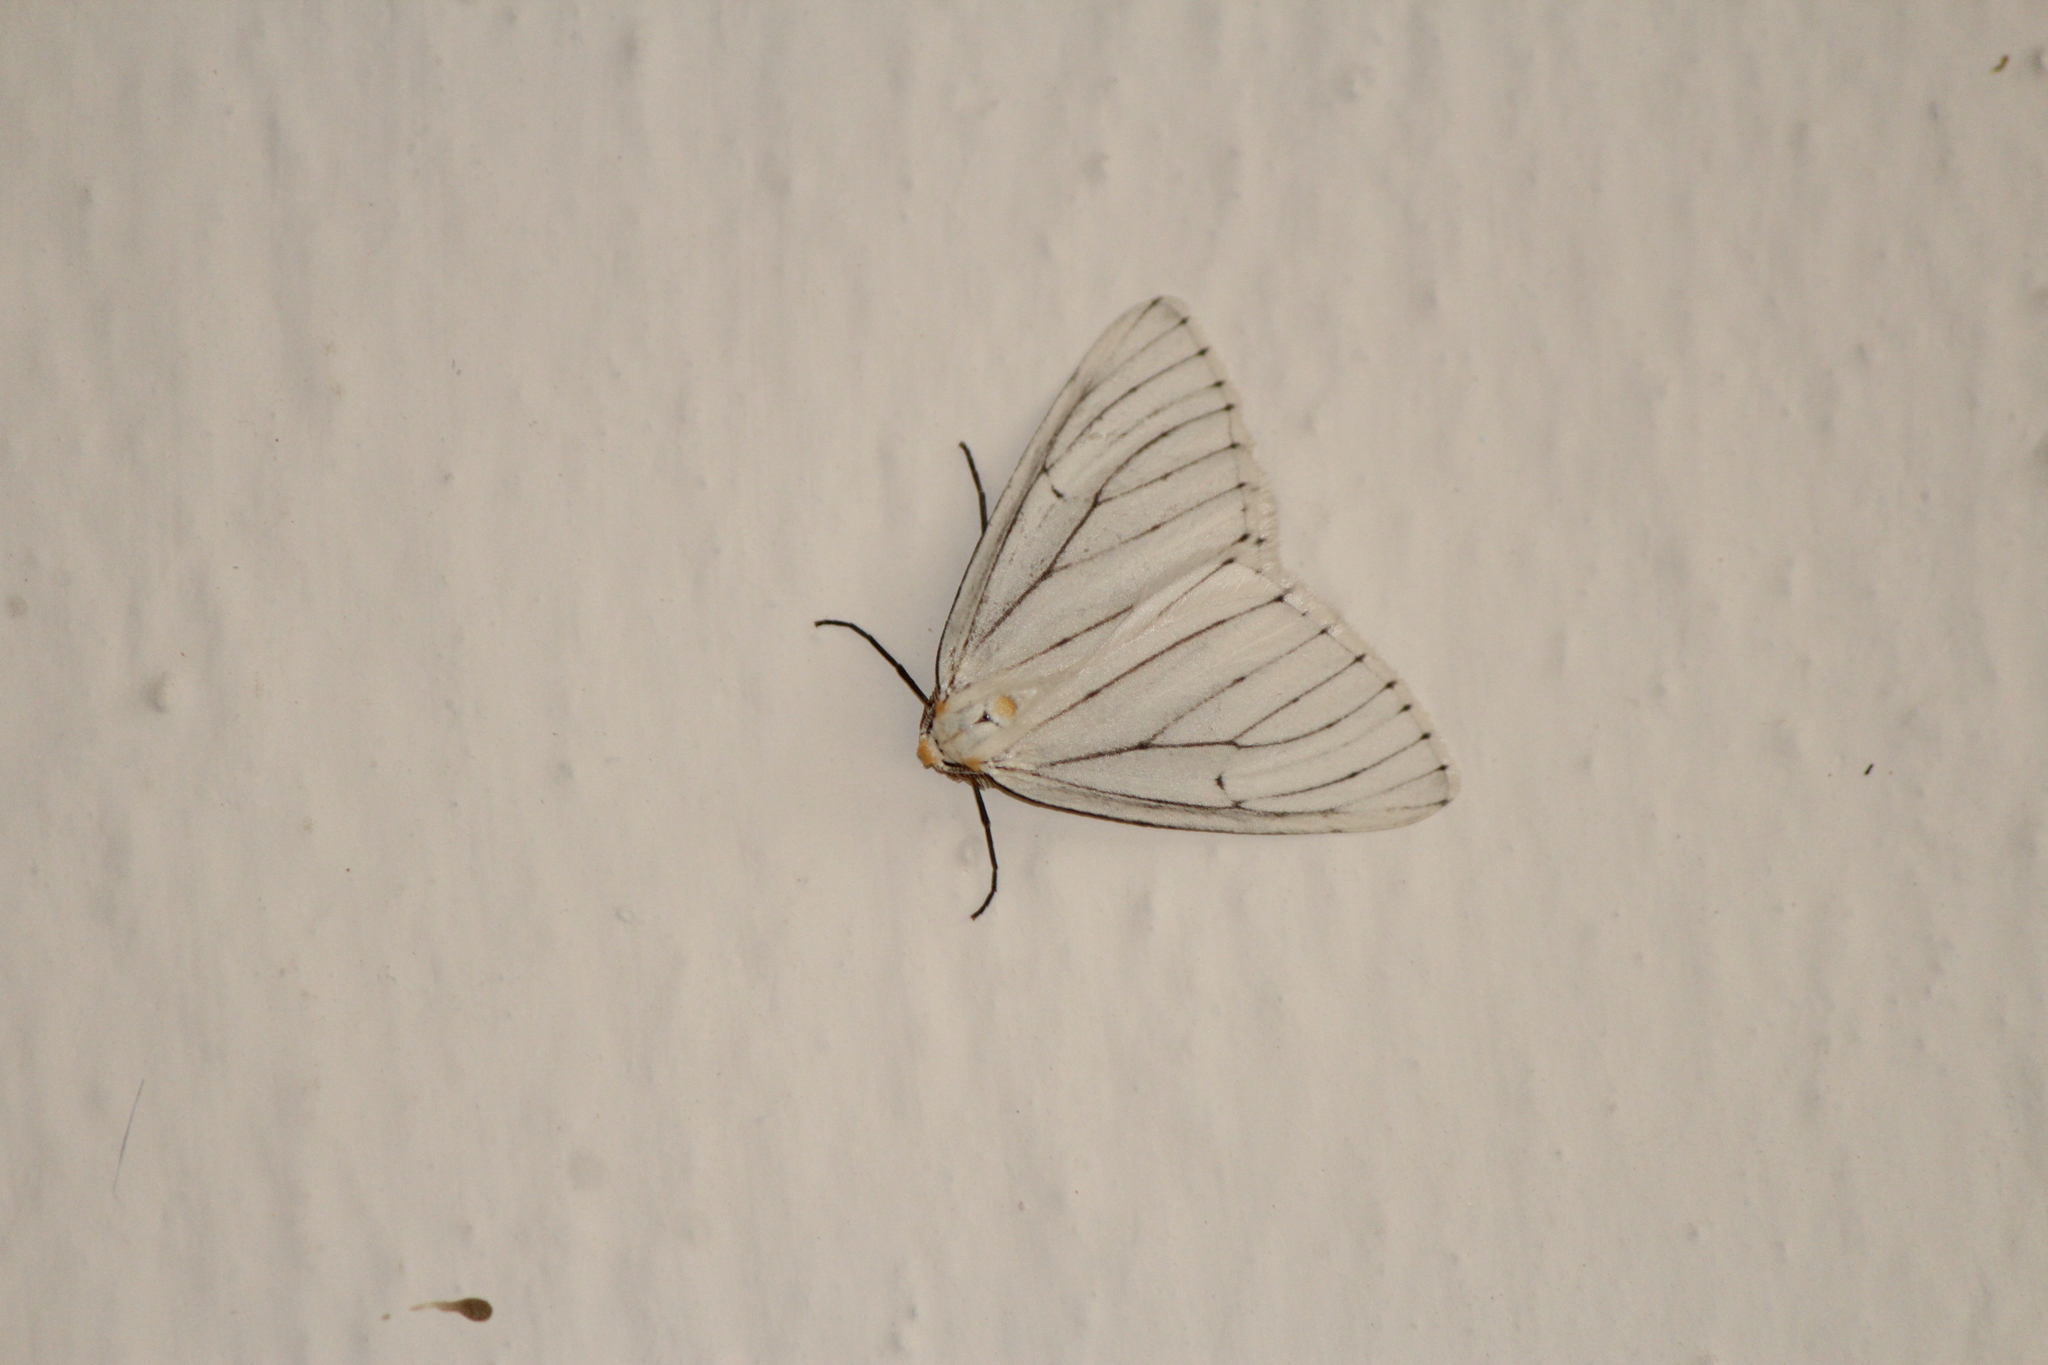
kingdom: Animalia
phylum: Arthropoda
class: Insecta
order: Lepidoptera
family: Geometridae
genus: Neuromelia
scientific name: Neuromelia selectata
